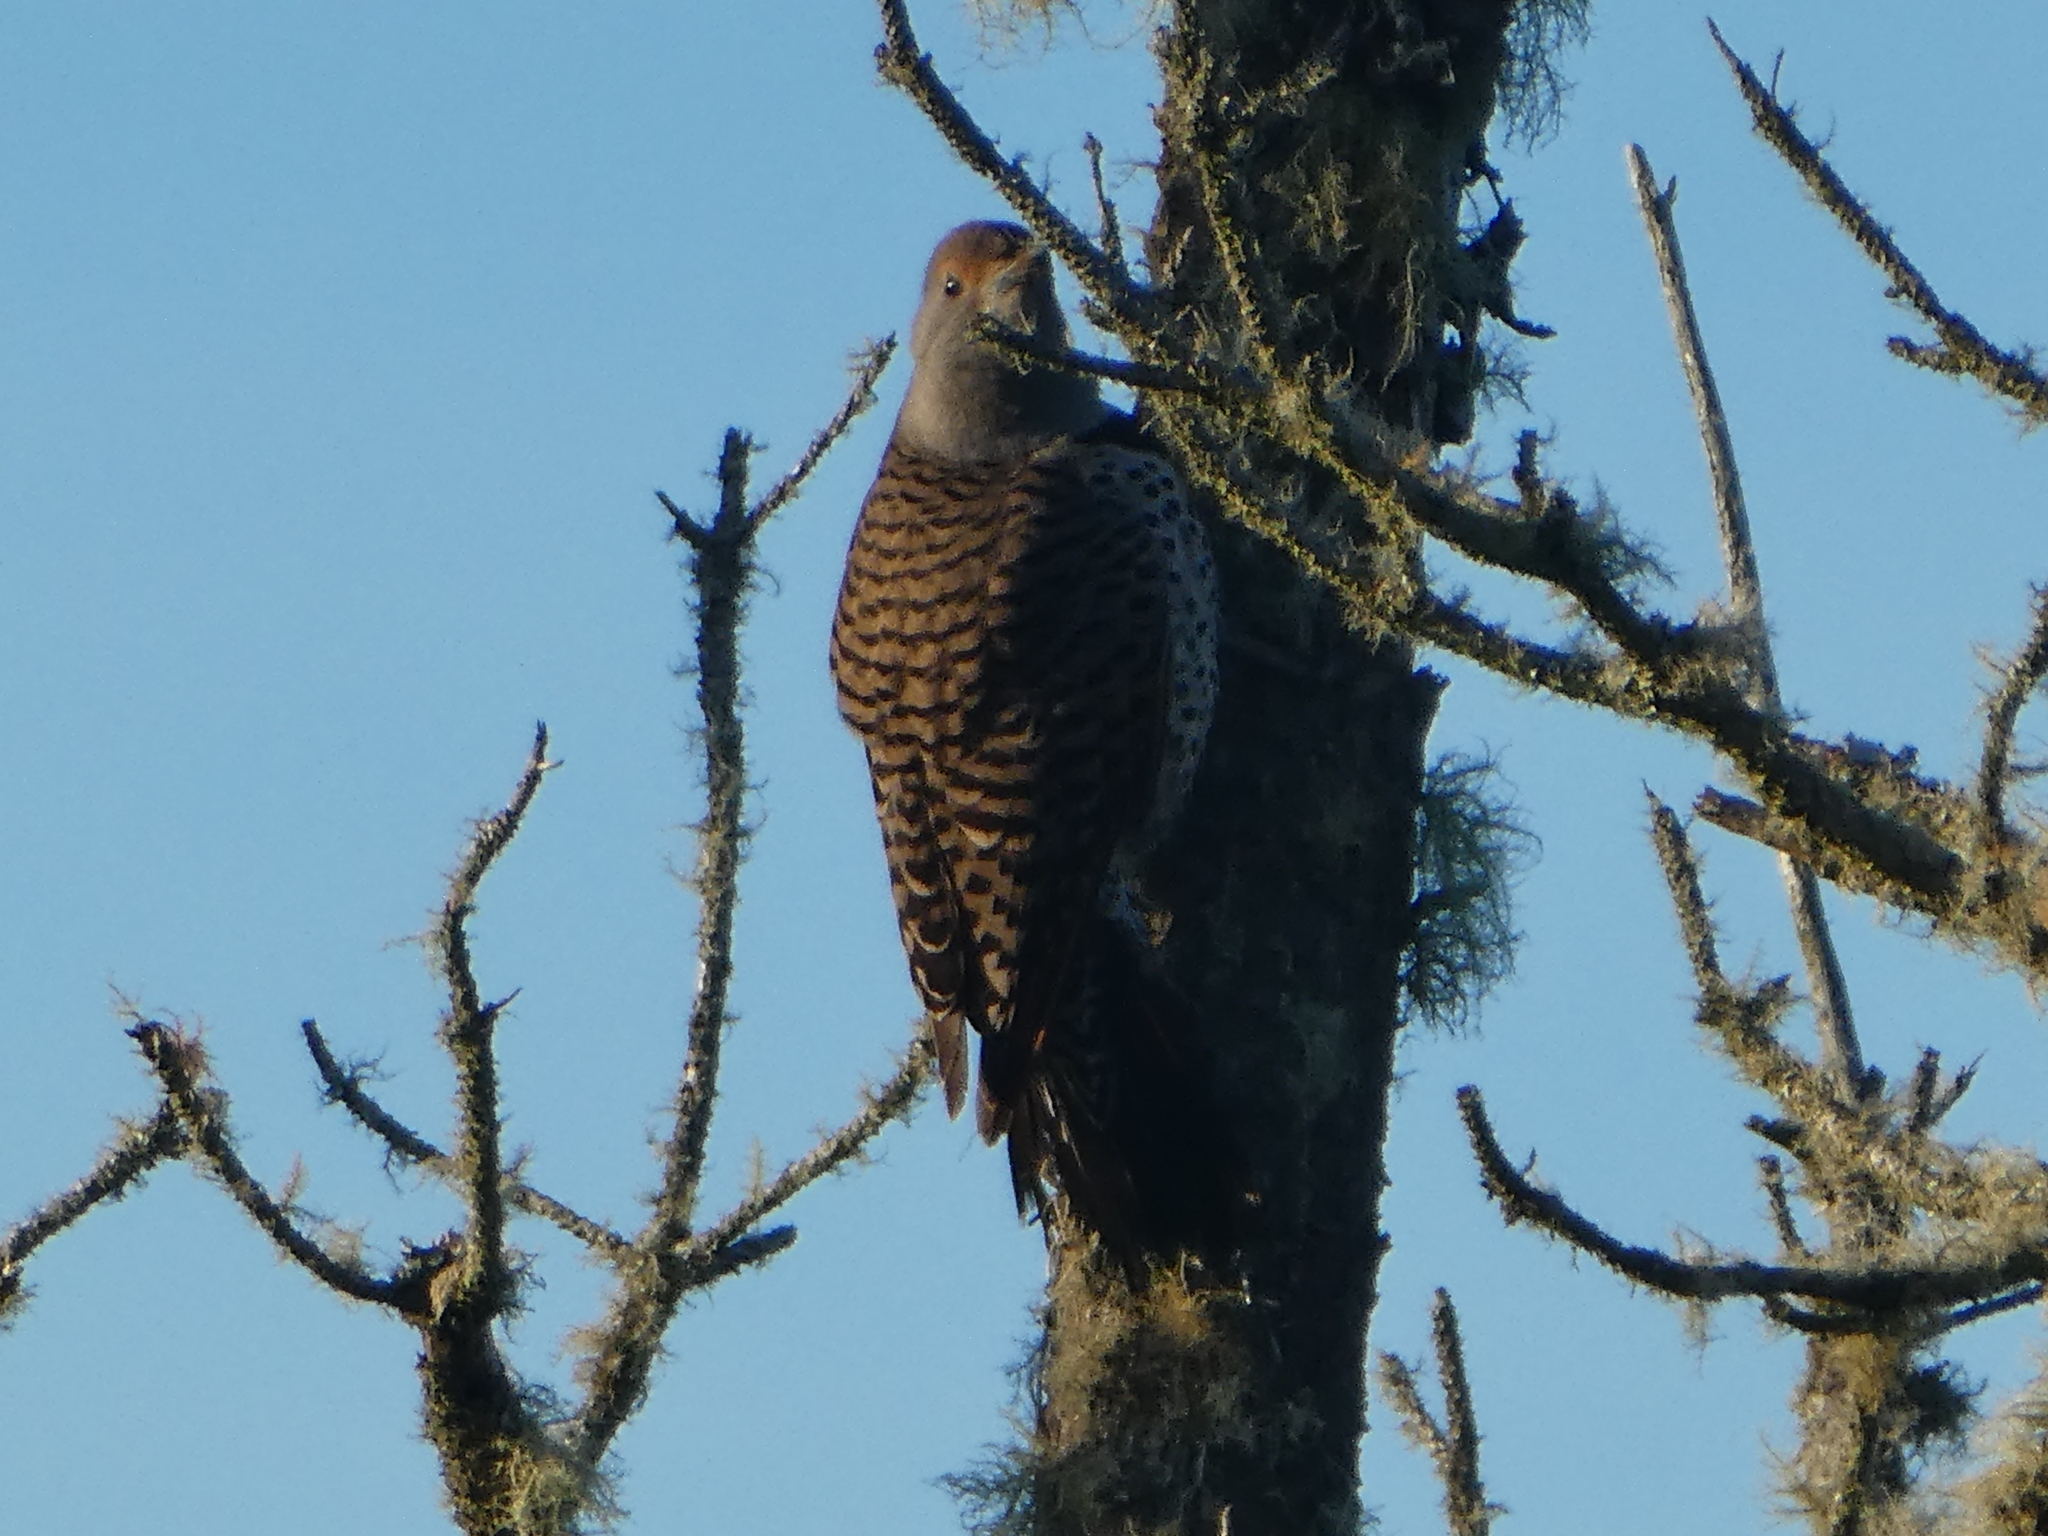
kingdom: Animalia
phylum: Chordata
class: Aves
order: Piciformes
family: Picidae
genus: Colaptes
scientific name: Colaptes auratus
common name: Northern flicker
